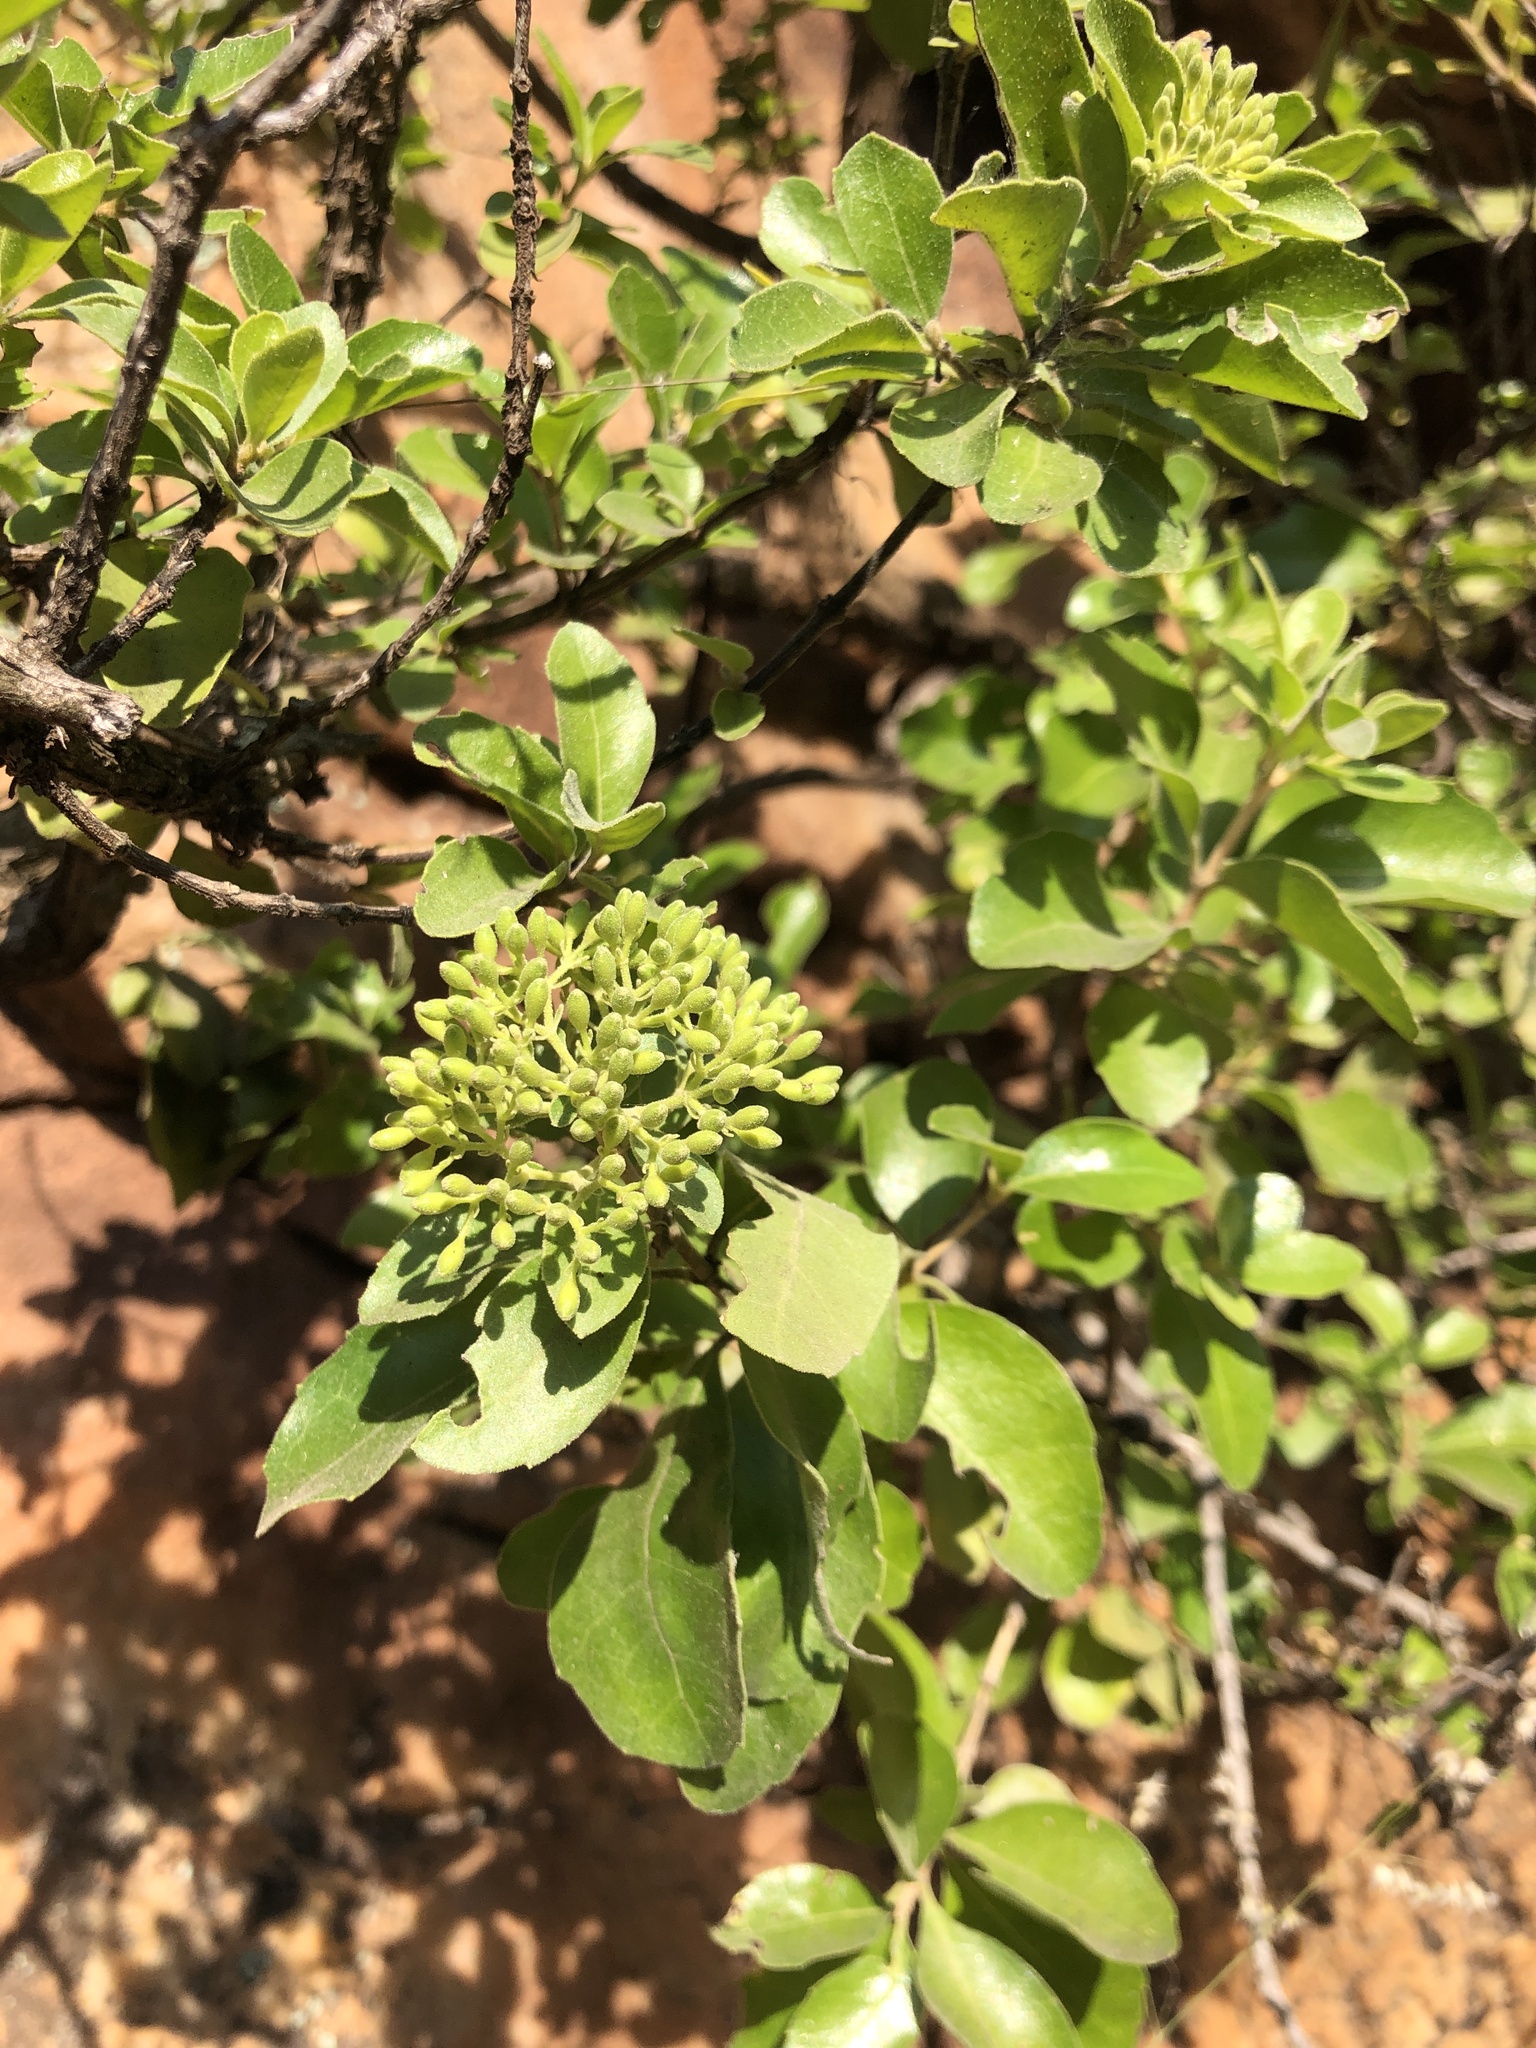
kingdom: Plantae
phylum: Tracheophyta
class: Magnoliopsida
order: Lamiales
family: Stilbaceae
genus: Nuxia
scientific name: Nuxia congesta
